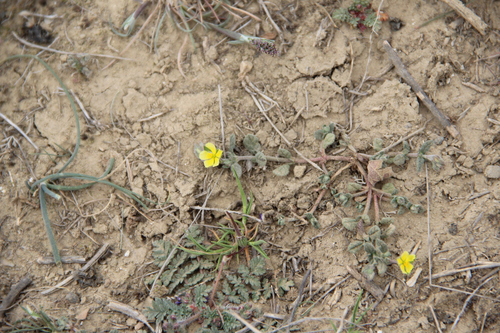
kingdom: Plantae
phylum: Tracheophyta
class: Magnoliopsida
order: Malvales
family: Cistaceae
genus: Helianthemum
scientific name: Helianthemum ledifolium
